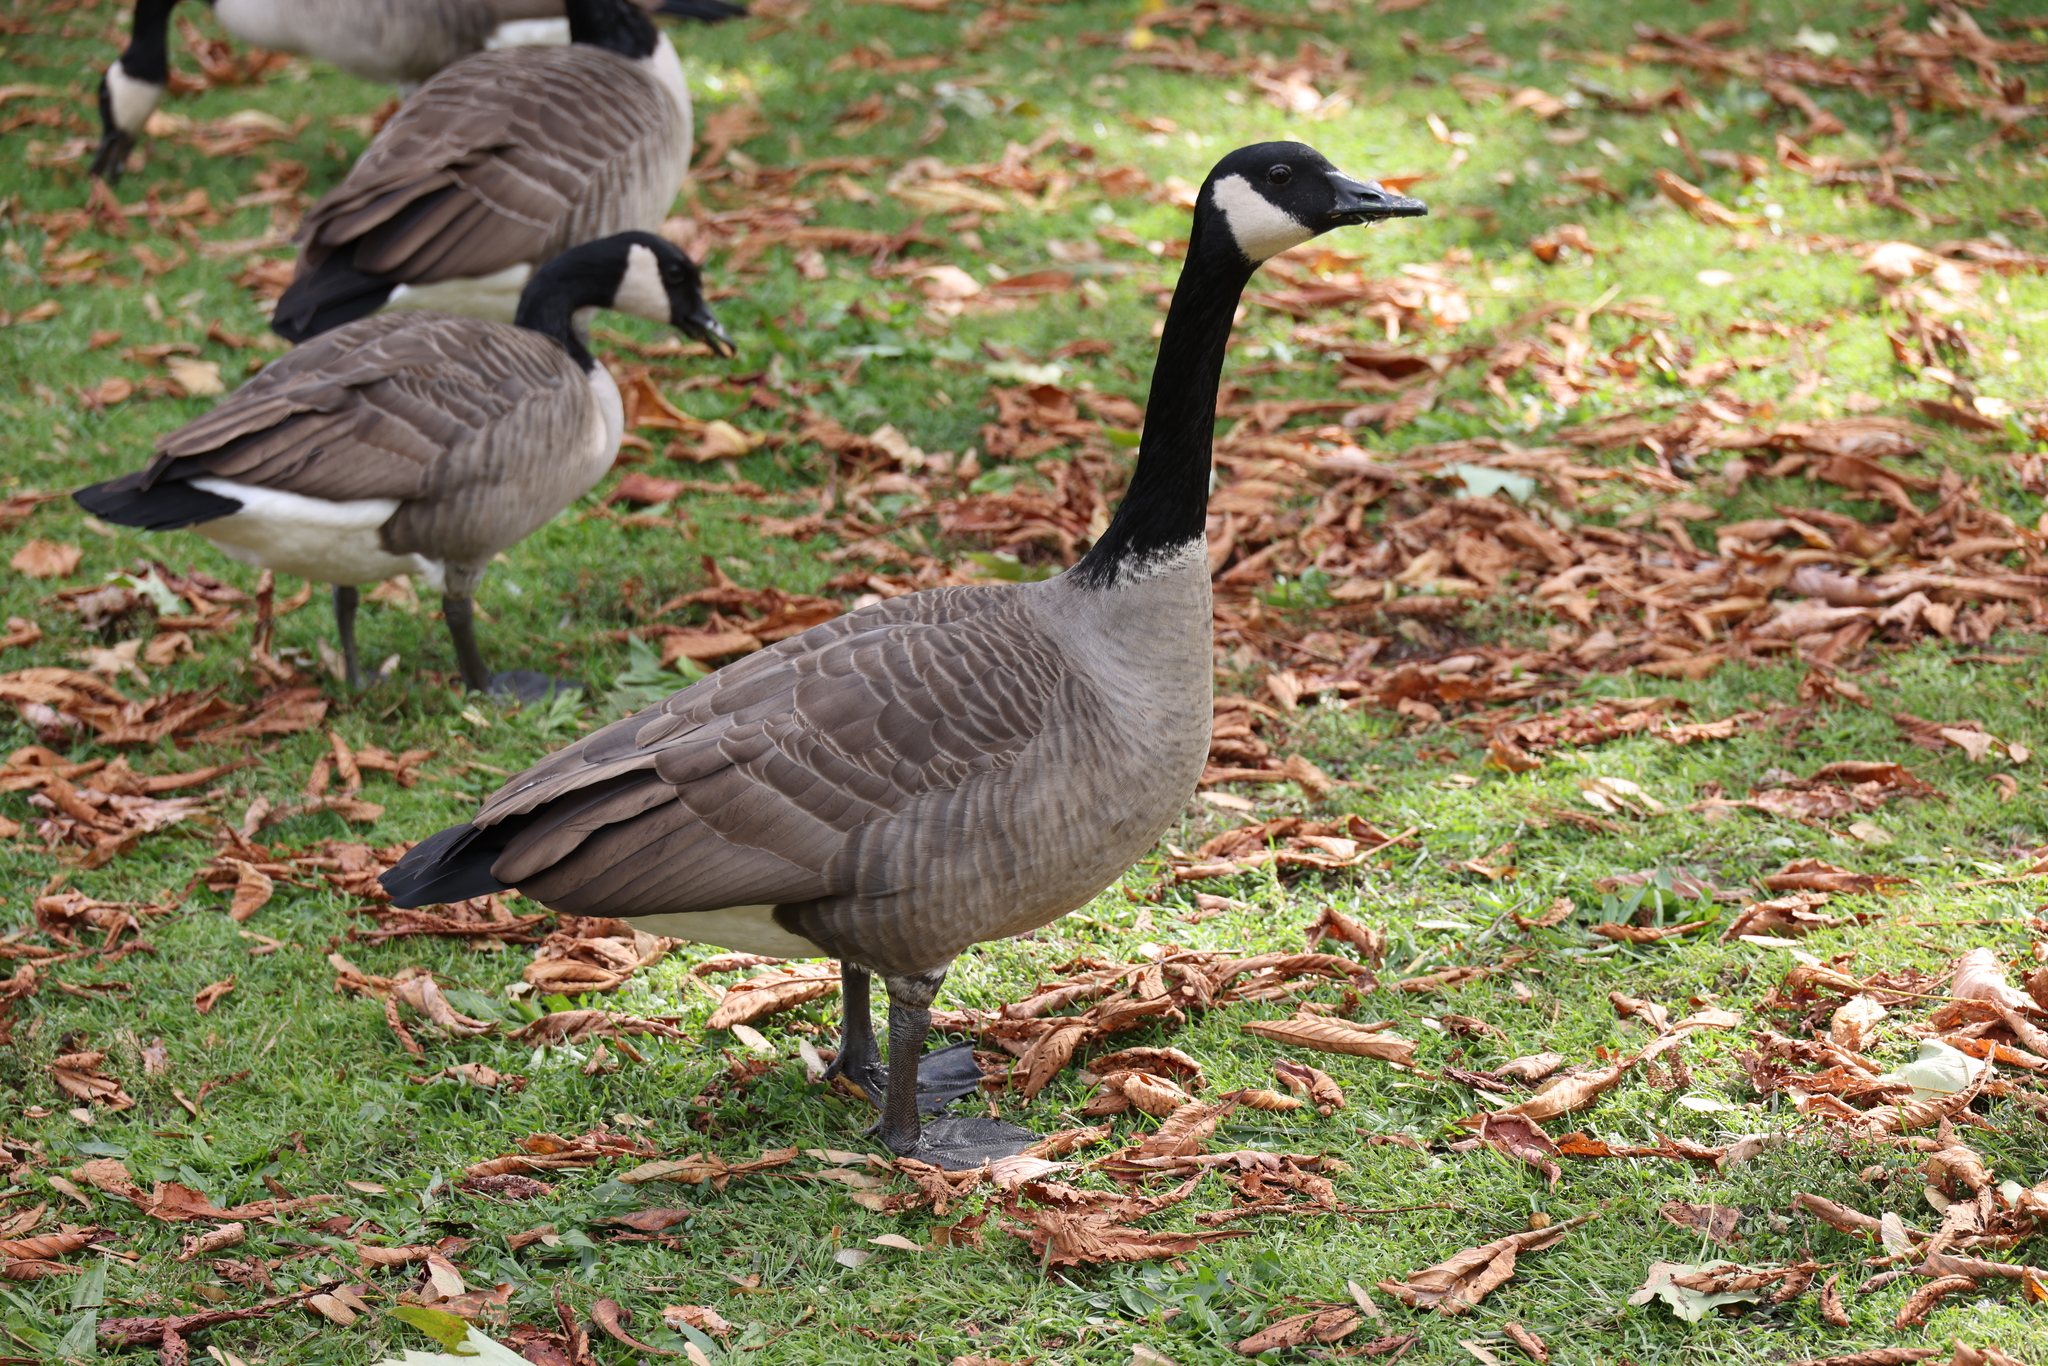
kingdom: Animalia
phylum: Chordata
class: Aves
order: Anseriformes
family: Anatidae
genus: Branta
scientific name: Branta canadensis
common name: Canada goose
